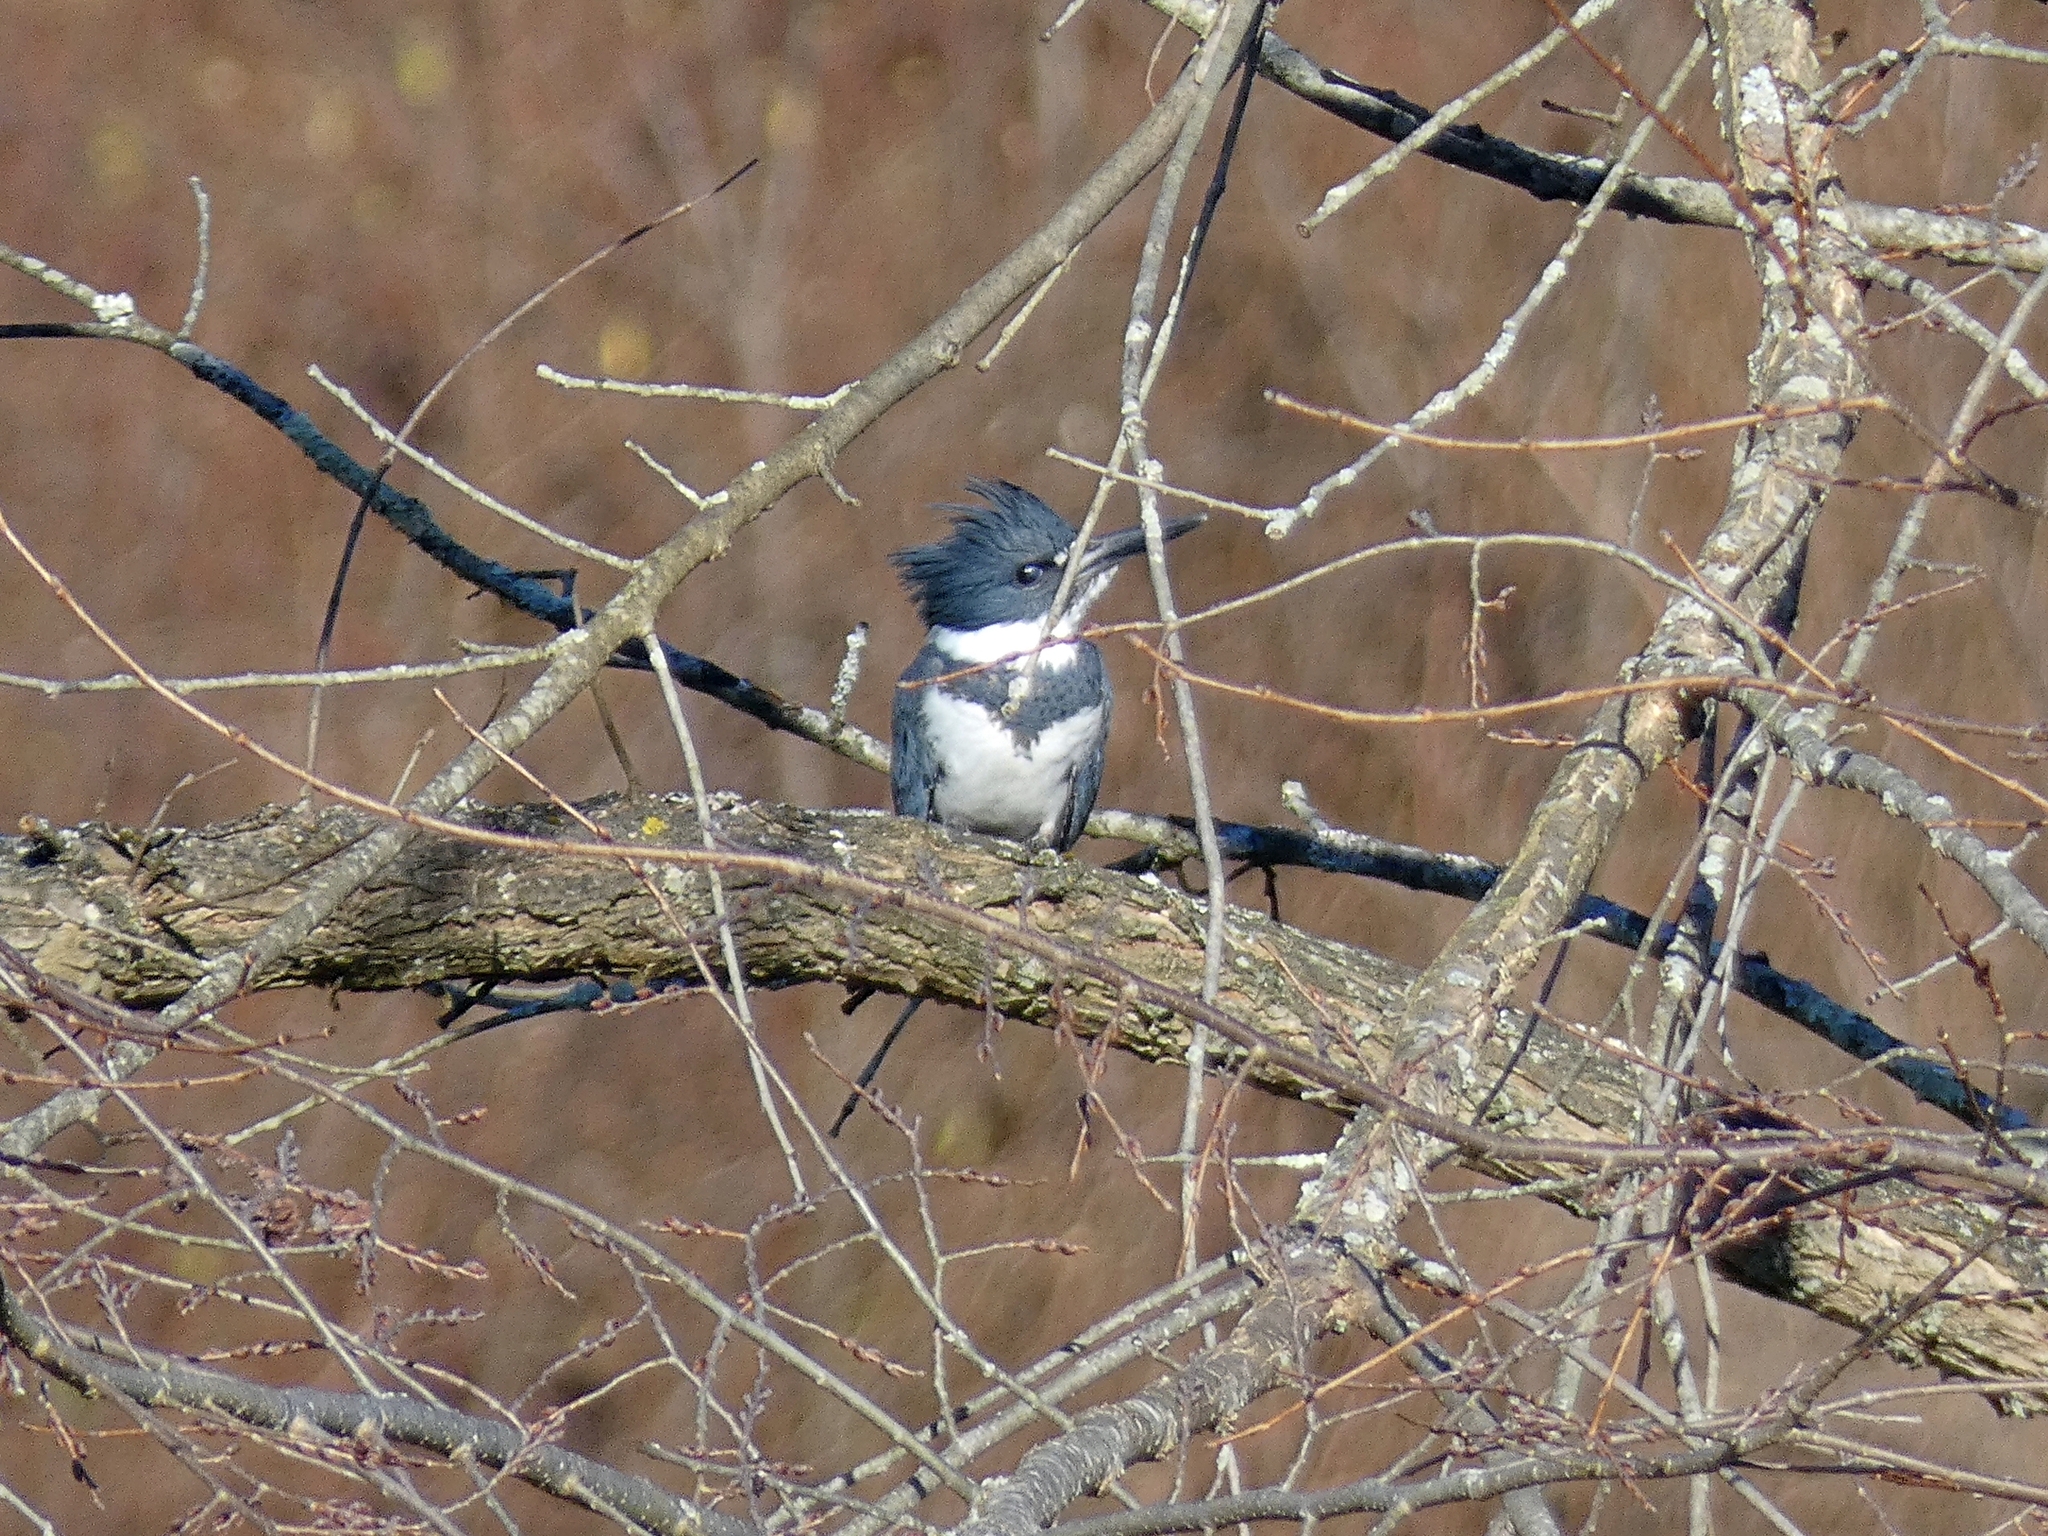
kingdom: Animalia
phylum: Chordata
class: Aves
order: Coraciiformes
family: Alcedinidae
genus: Megaceryle
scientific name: Megaceryle alcyon
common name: Belted kingfisher
